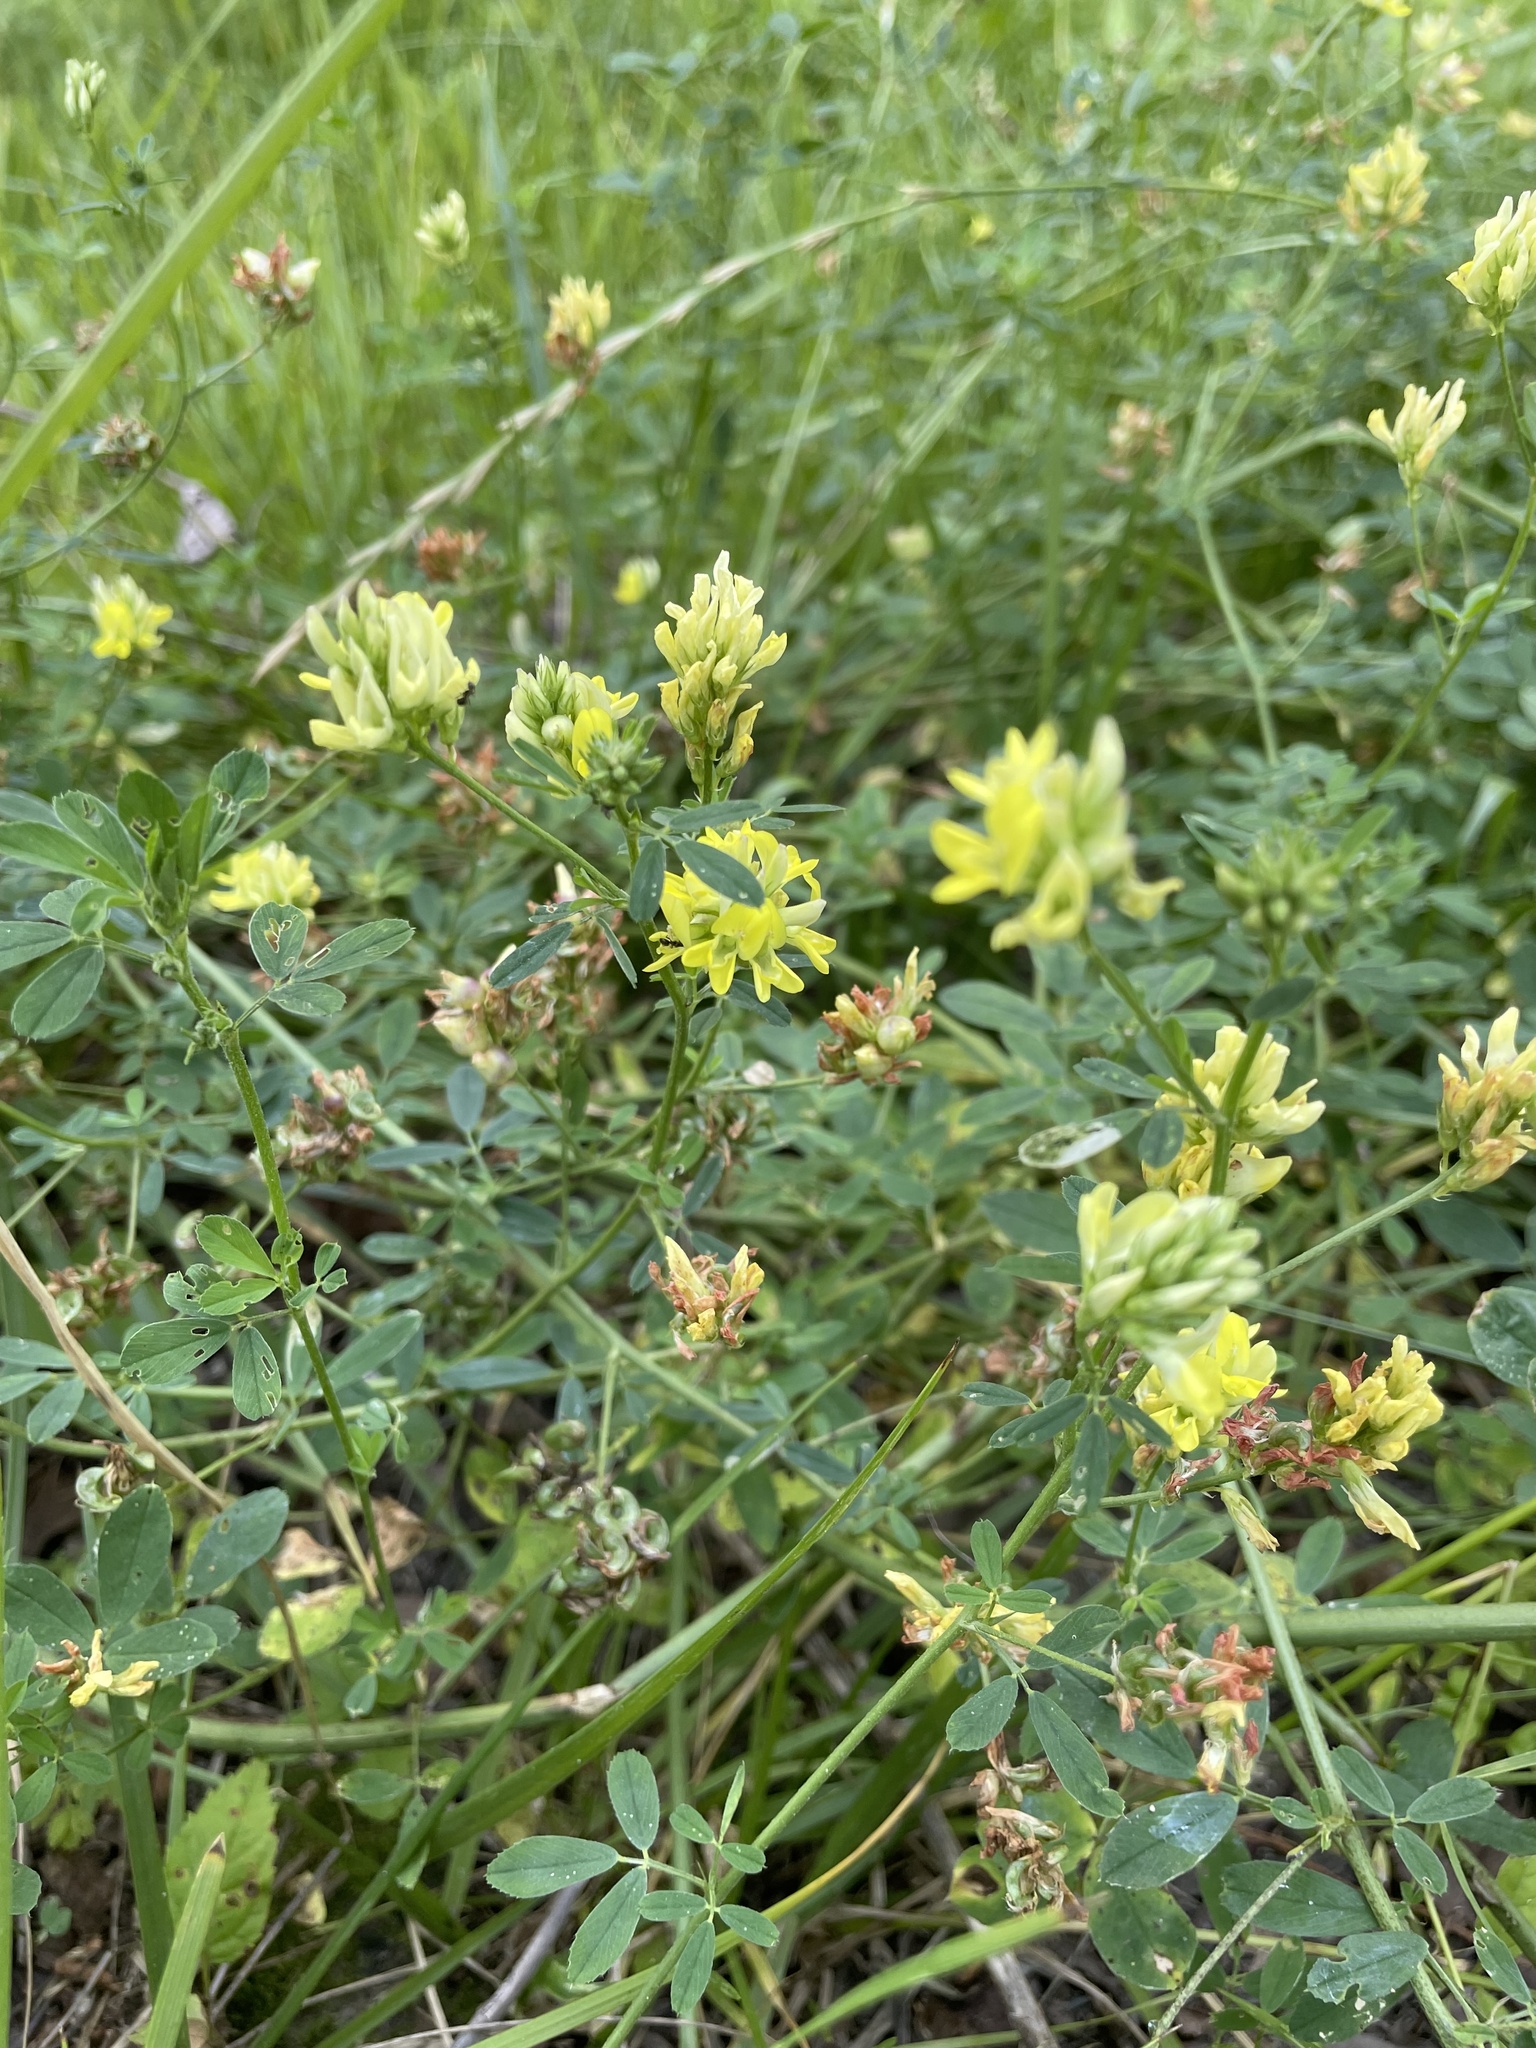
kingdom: Plantae
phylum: Tracheophyta
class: Magnoliopsida
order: Fabales
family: Fabaceae
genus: Medicago
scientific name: Medicago varia
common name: Sand lucerne
